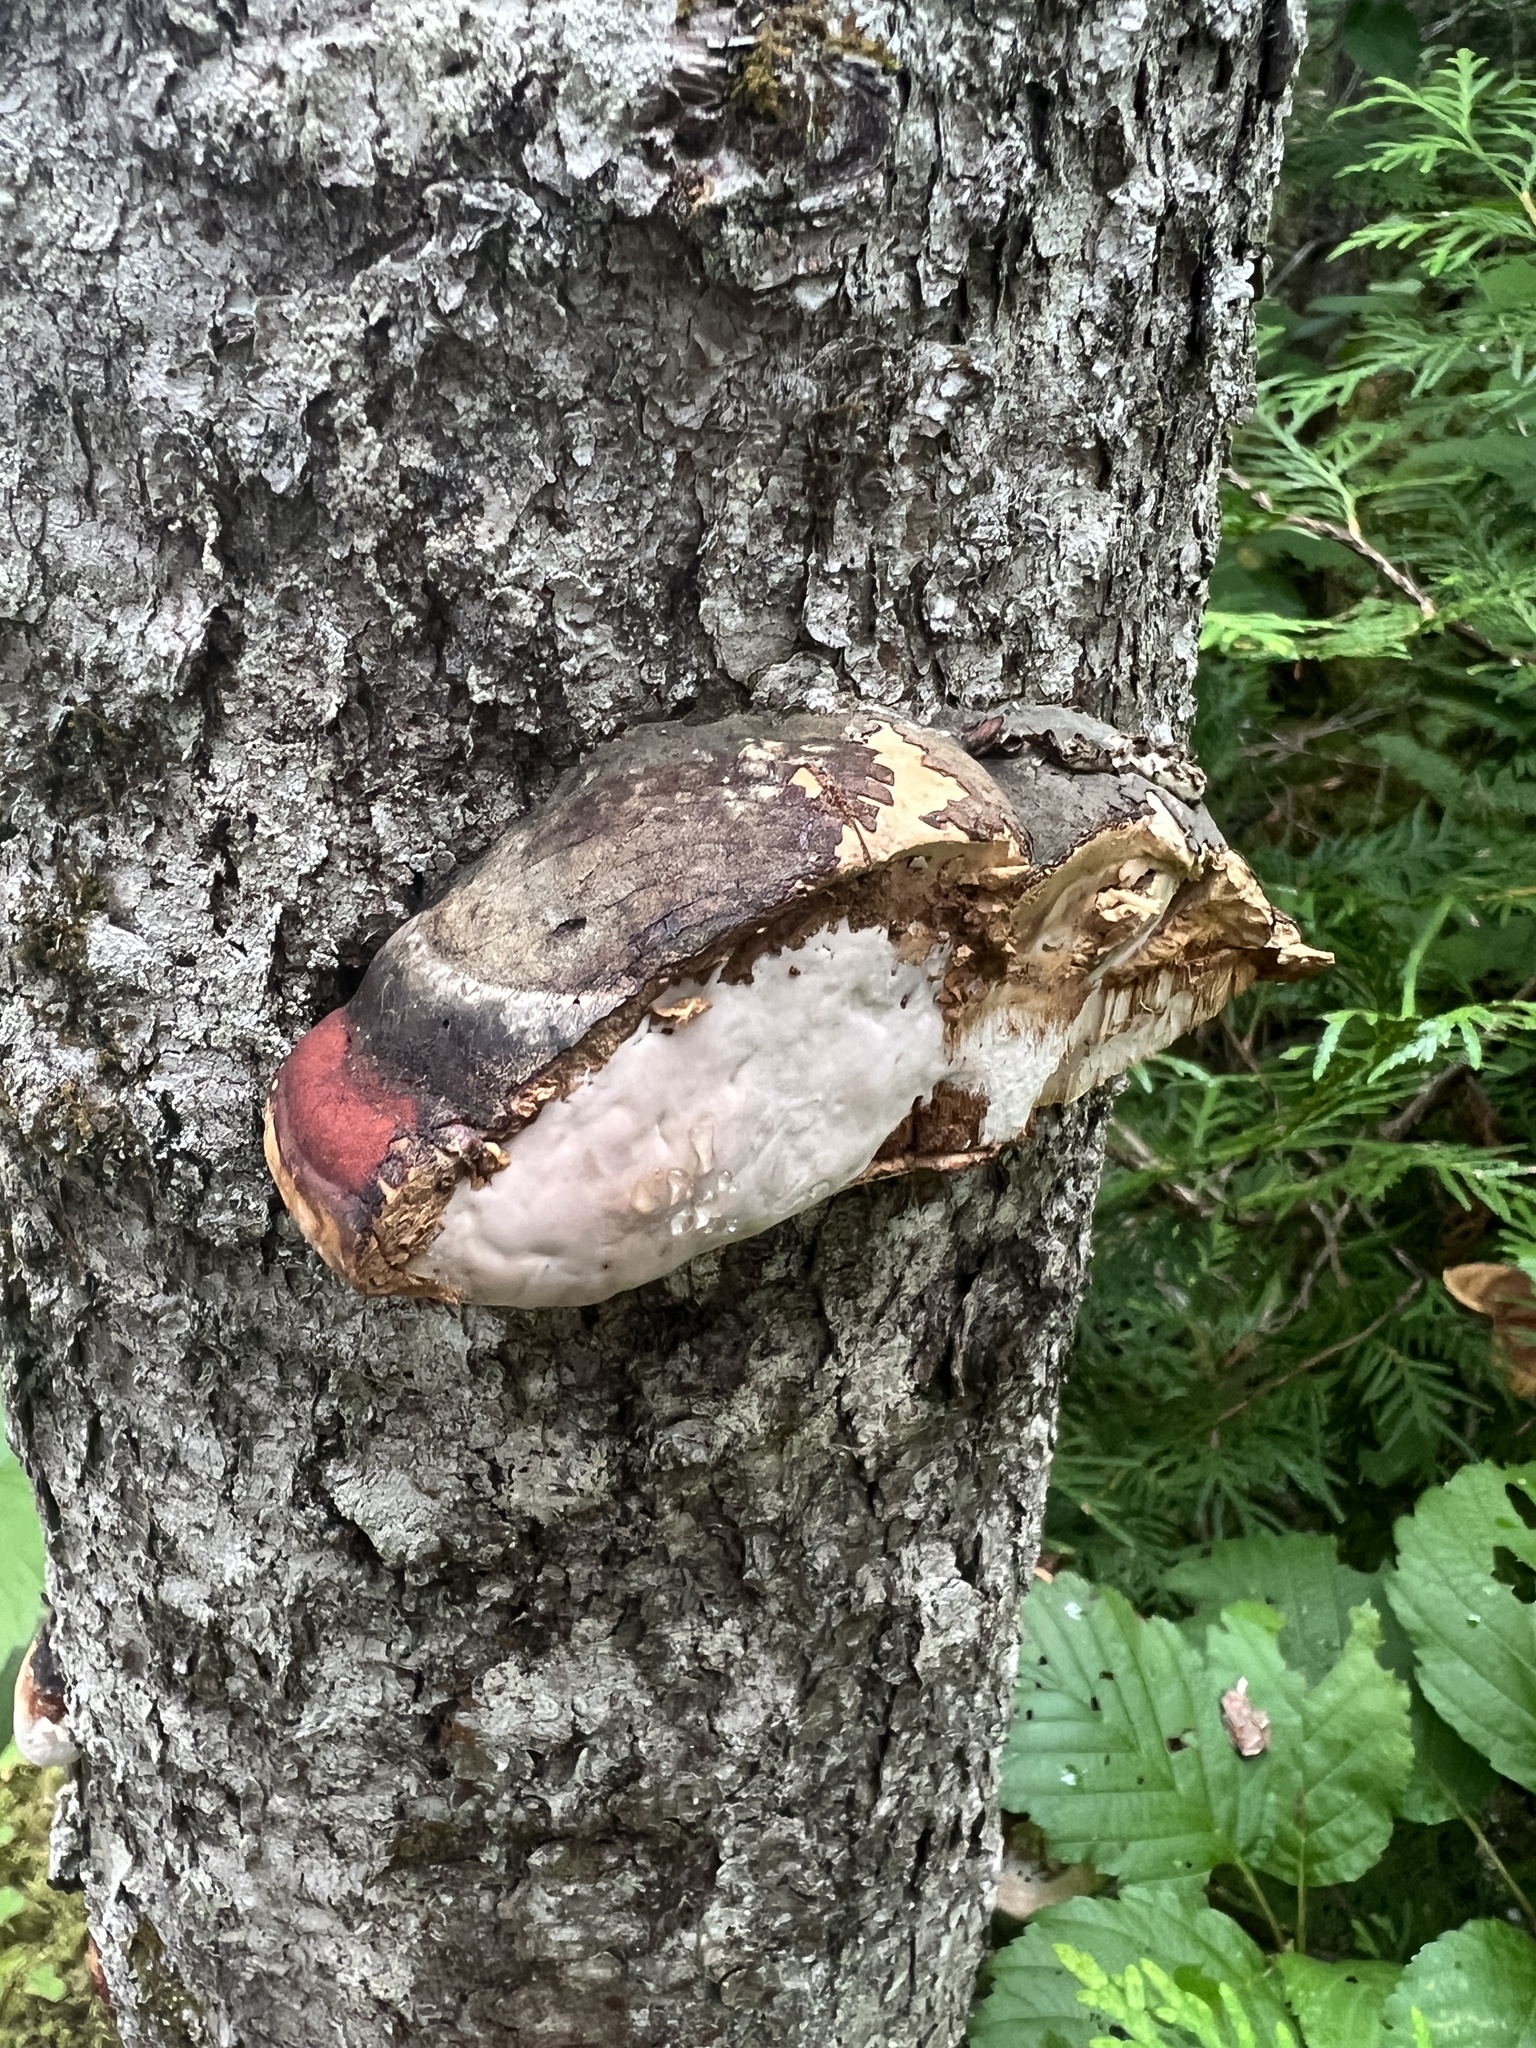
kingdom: Fungi
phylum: Basidiomycota
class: Agaricomycetes
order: Polyporales
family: Fomitopsidaceae
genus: Fomitopsis
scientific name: Fomitopsis mounceae
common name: Northern red belt
